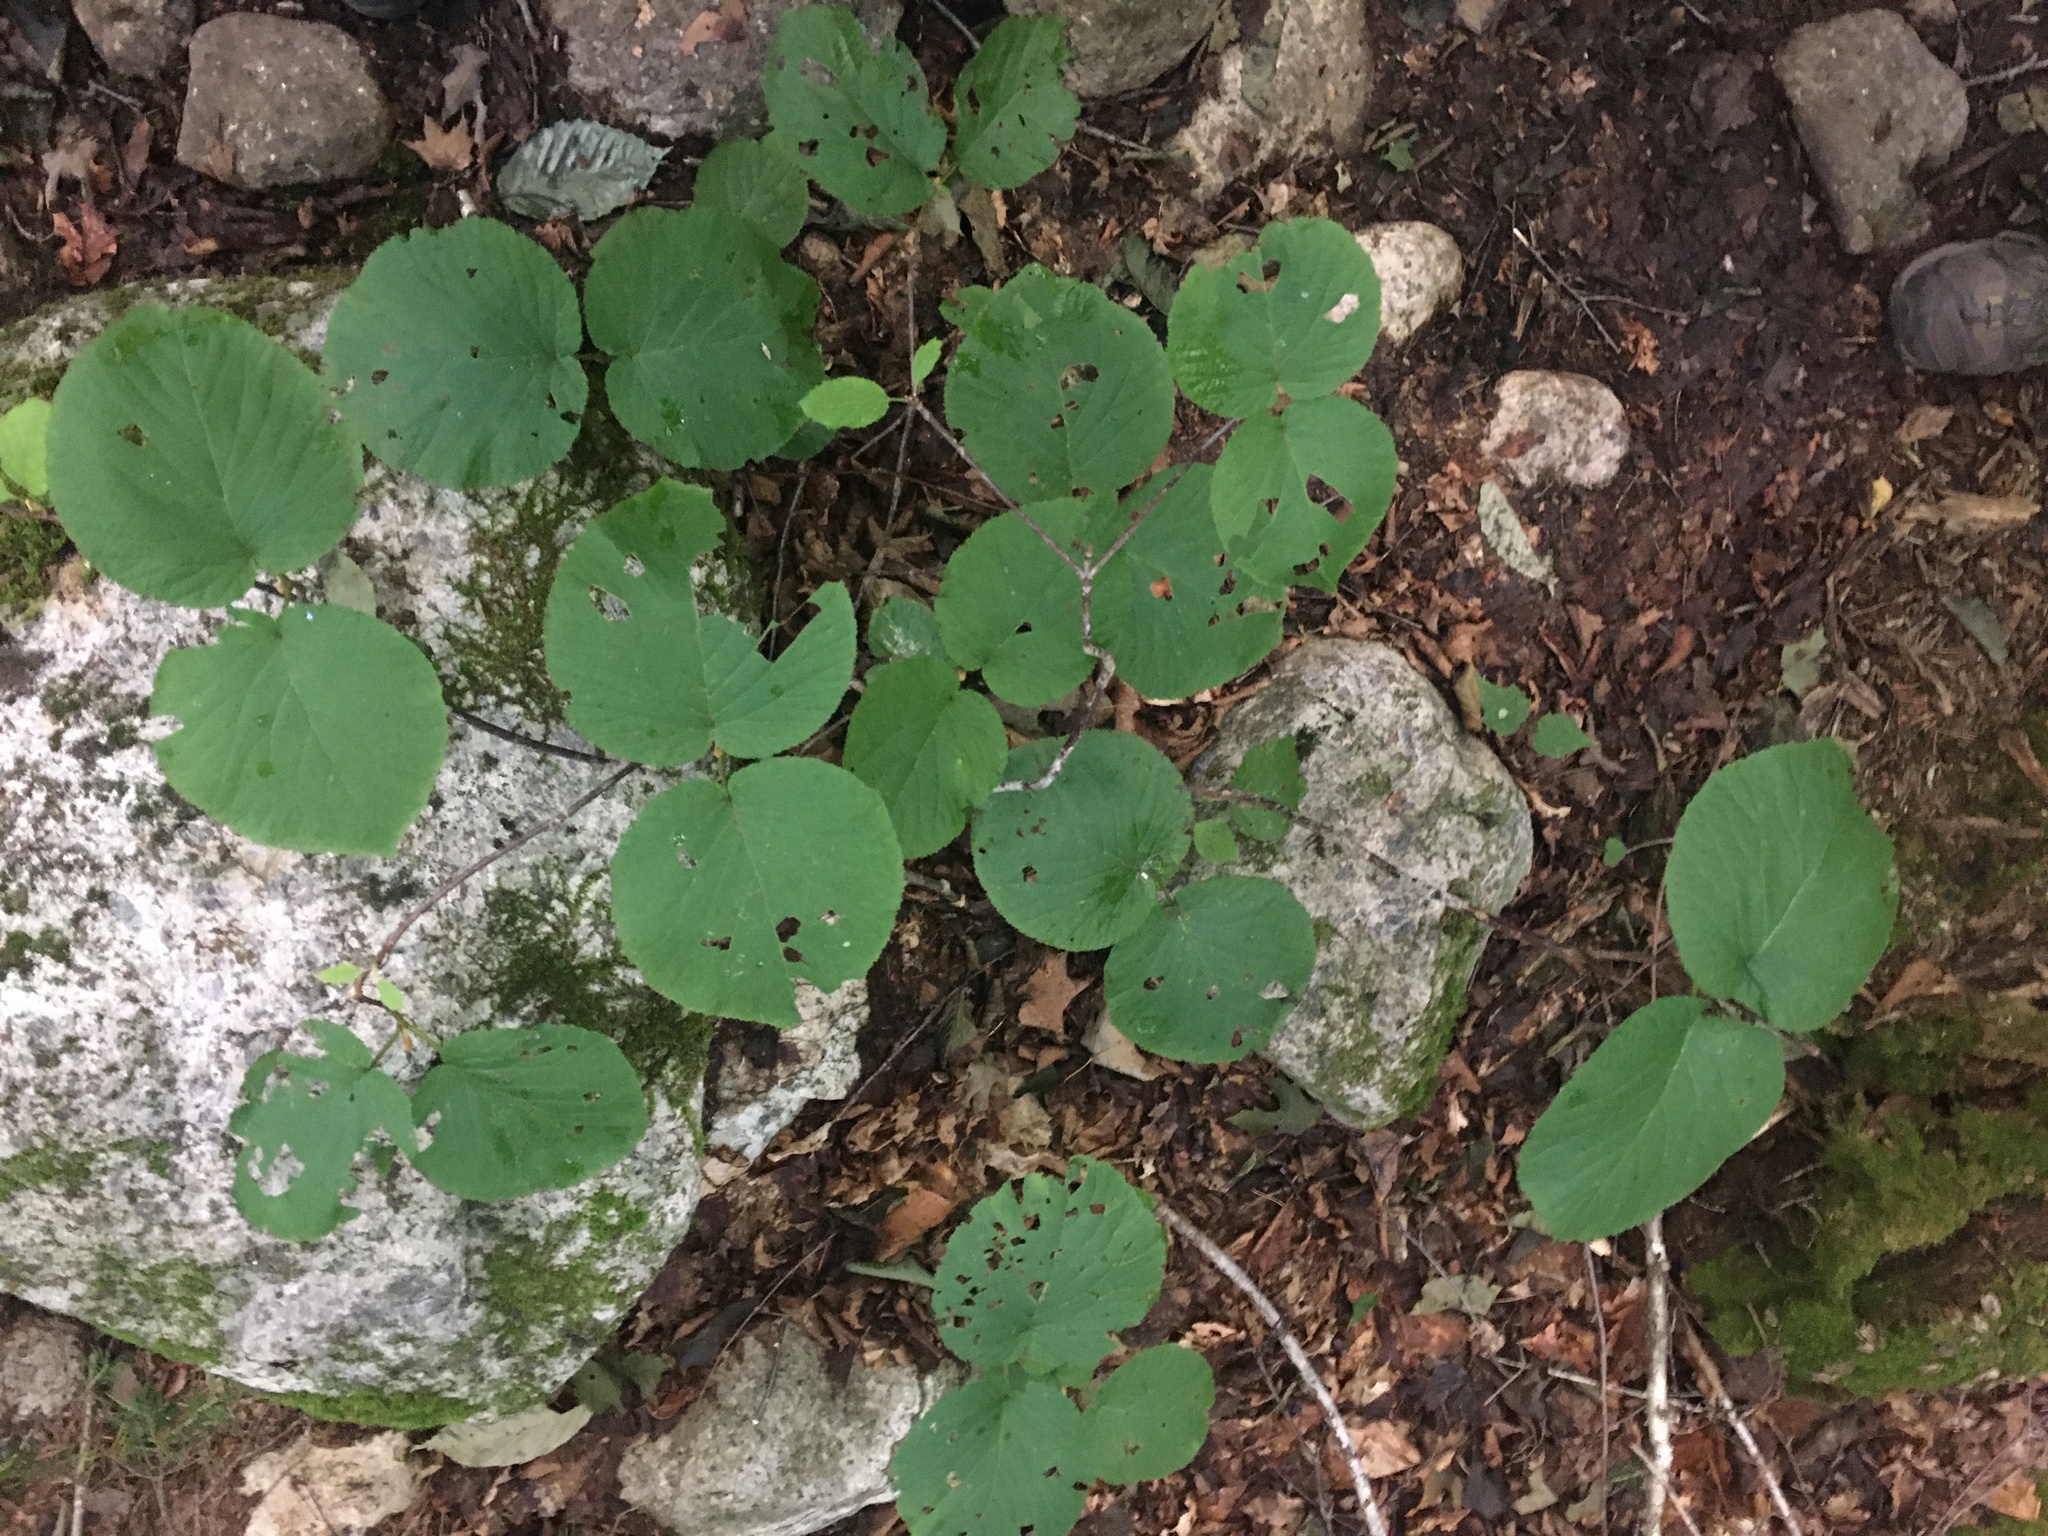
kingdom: Plantae
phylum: Tracheophyta
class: Magnoliopsida
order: Dipsacales
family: Viburnaceae
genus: Viburnum
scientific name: Viburnum lantanoides
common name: Hobblebush
